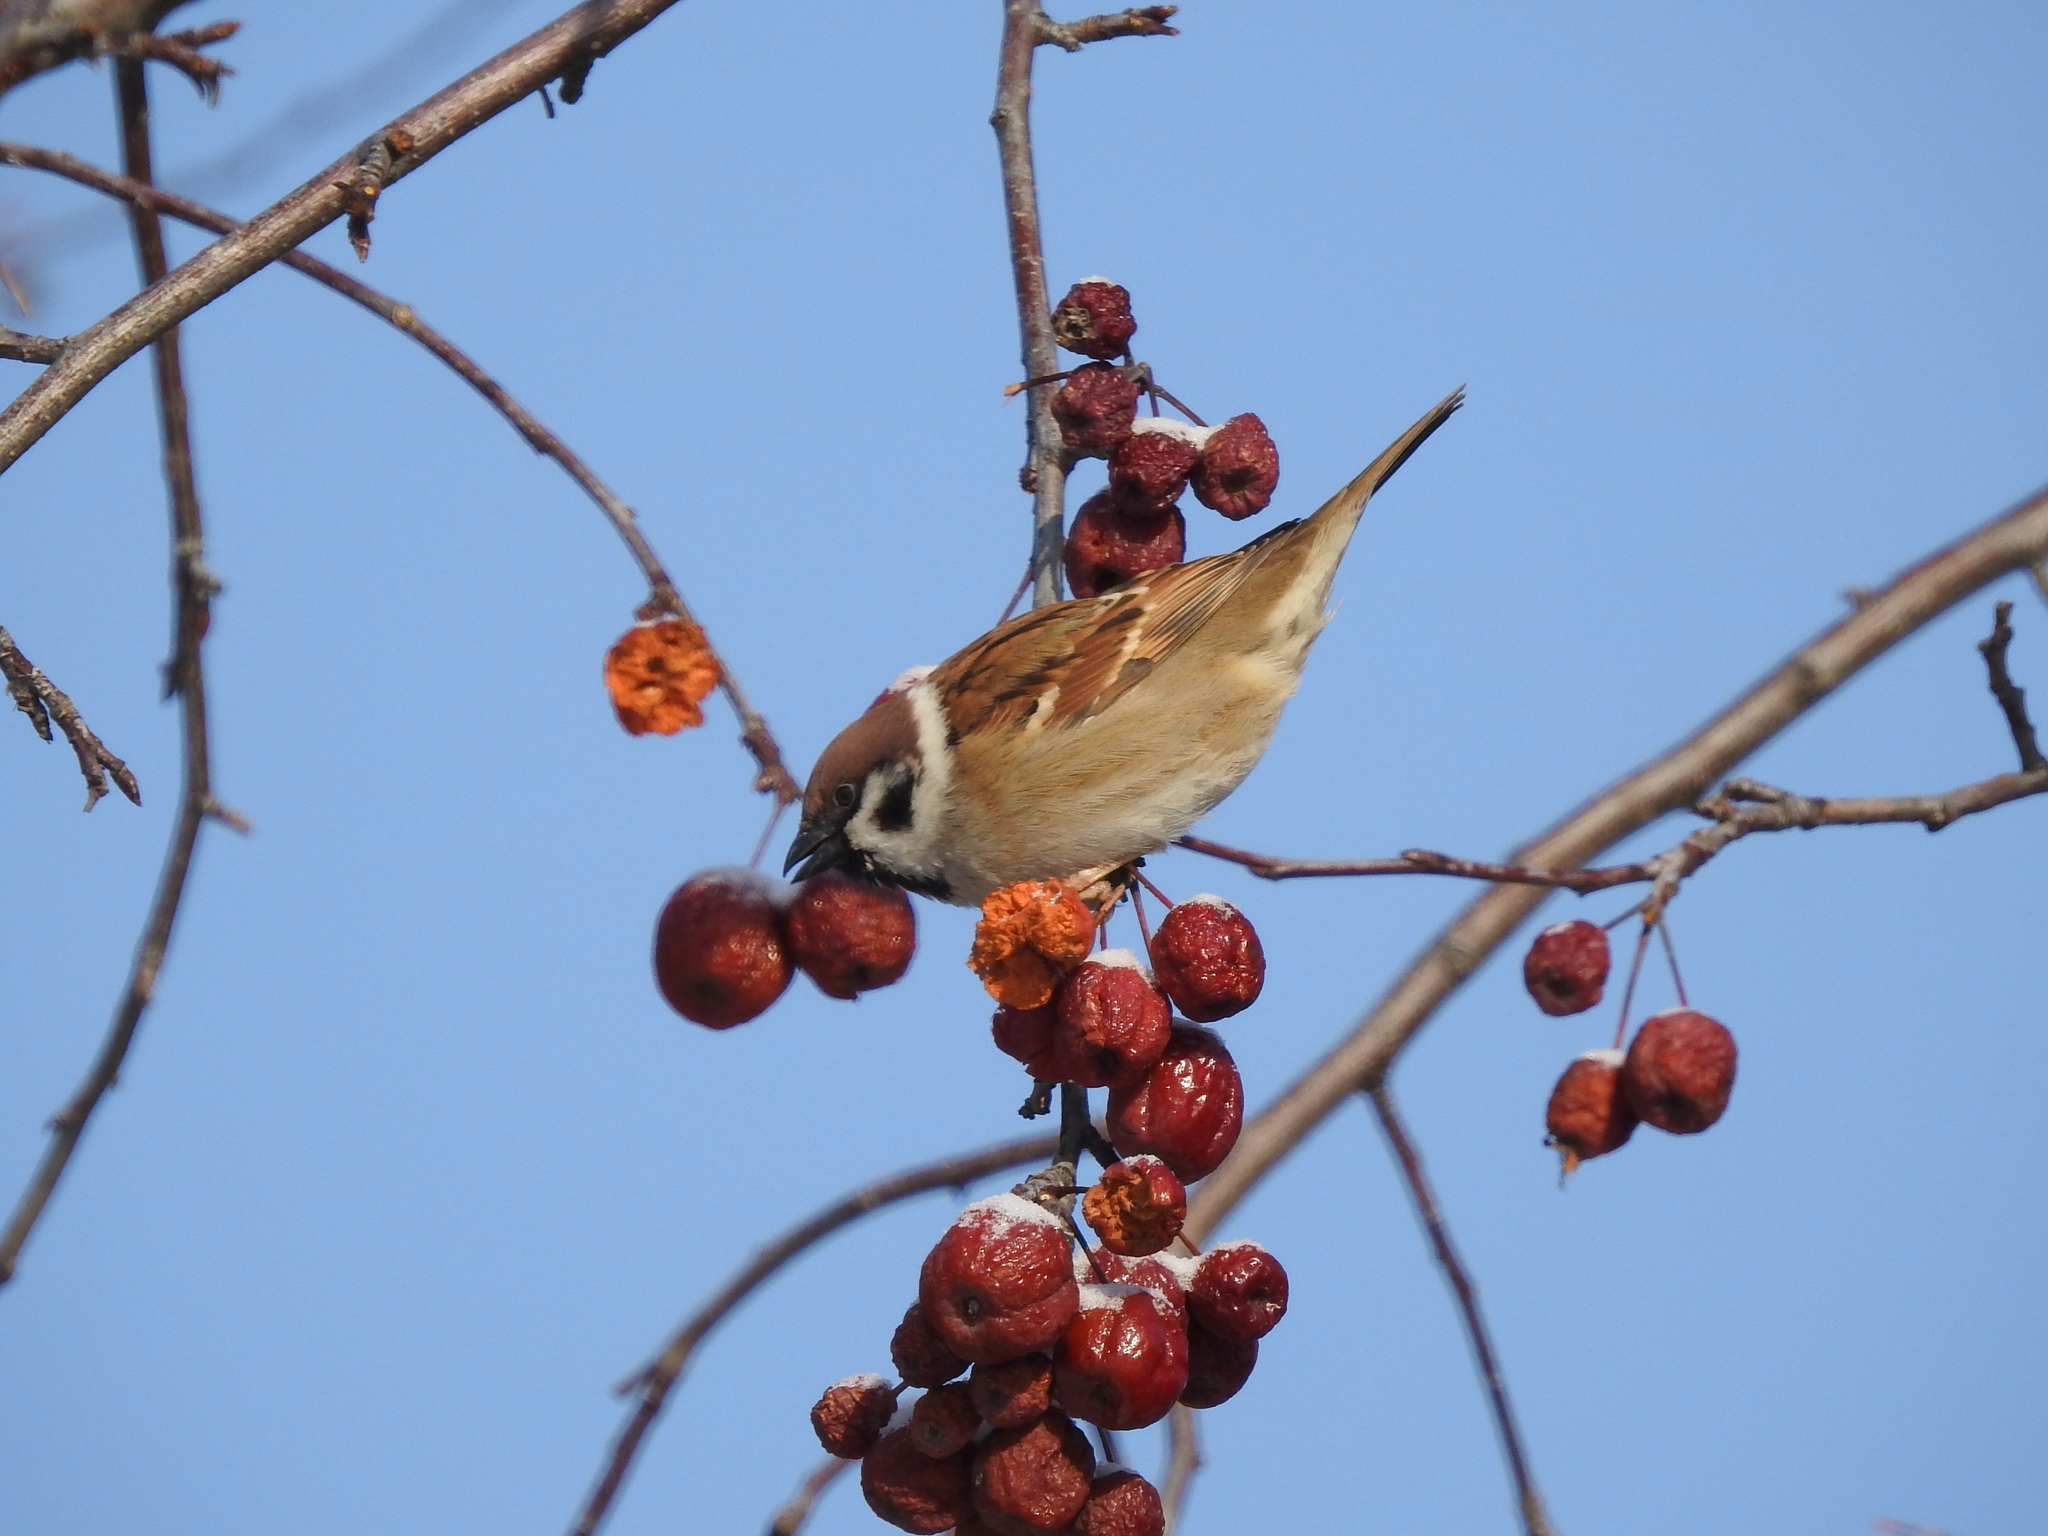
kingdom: Animalia
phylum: Chordata
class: Aves
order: Passeriformes
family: Passeridae
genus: Passer
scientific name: Passer montanus
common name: Eurasian tree sparrow
